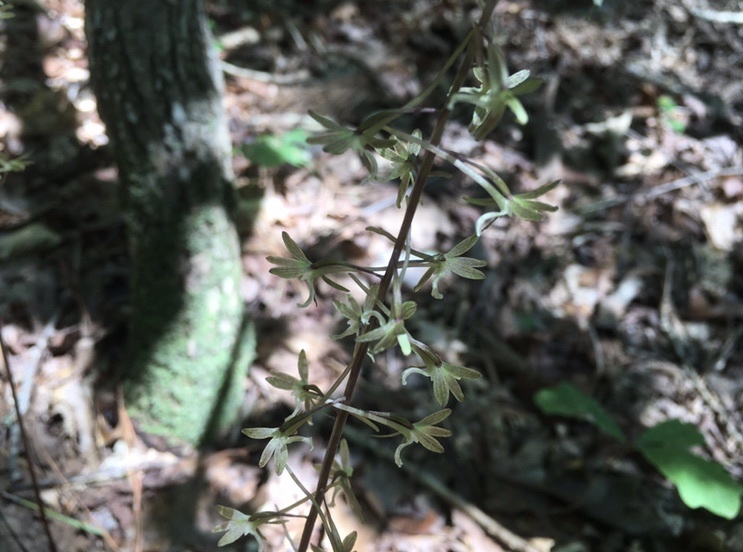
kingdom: Plantae
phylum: Tracheophyta
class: Liliopsida
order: Asparagales
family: Orchidaceae
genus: Tipularia
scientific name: Tipularia discolor
